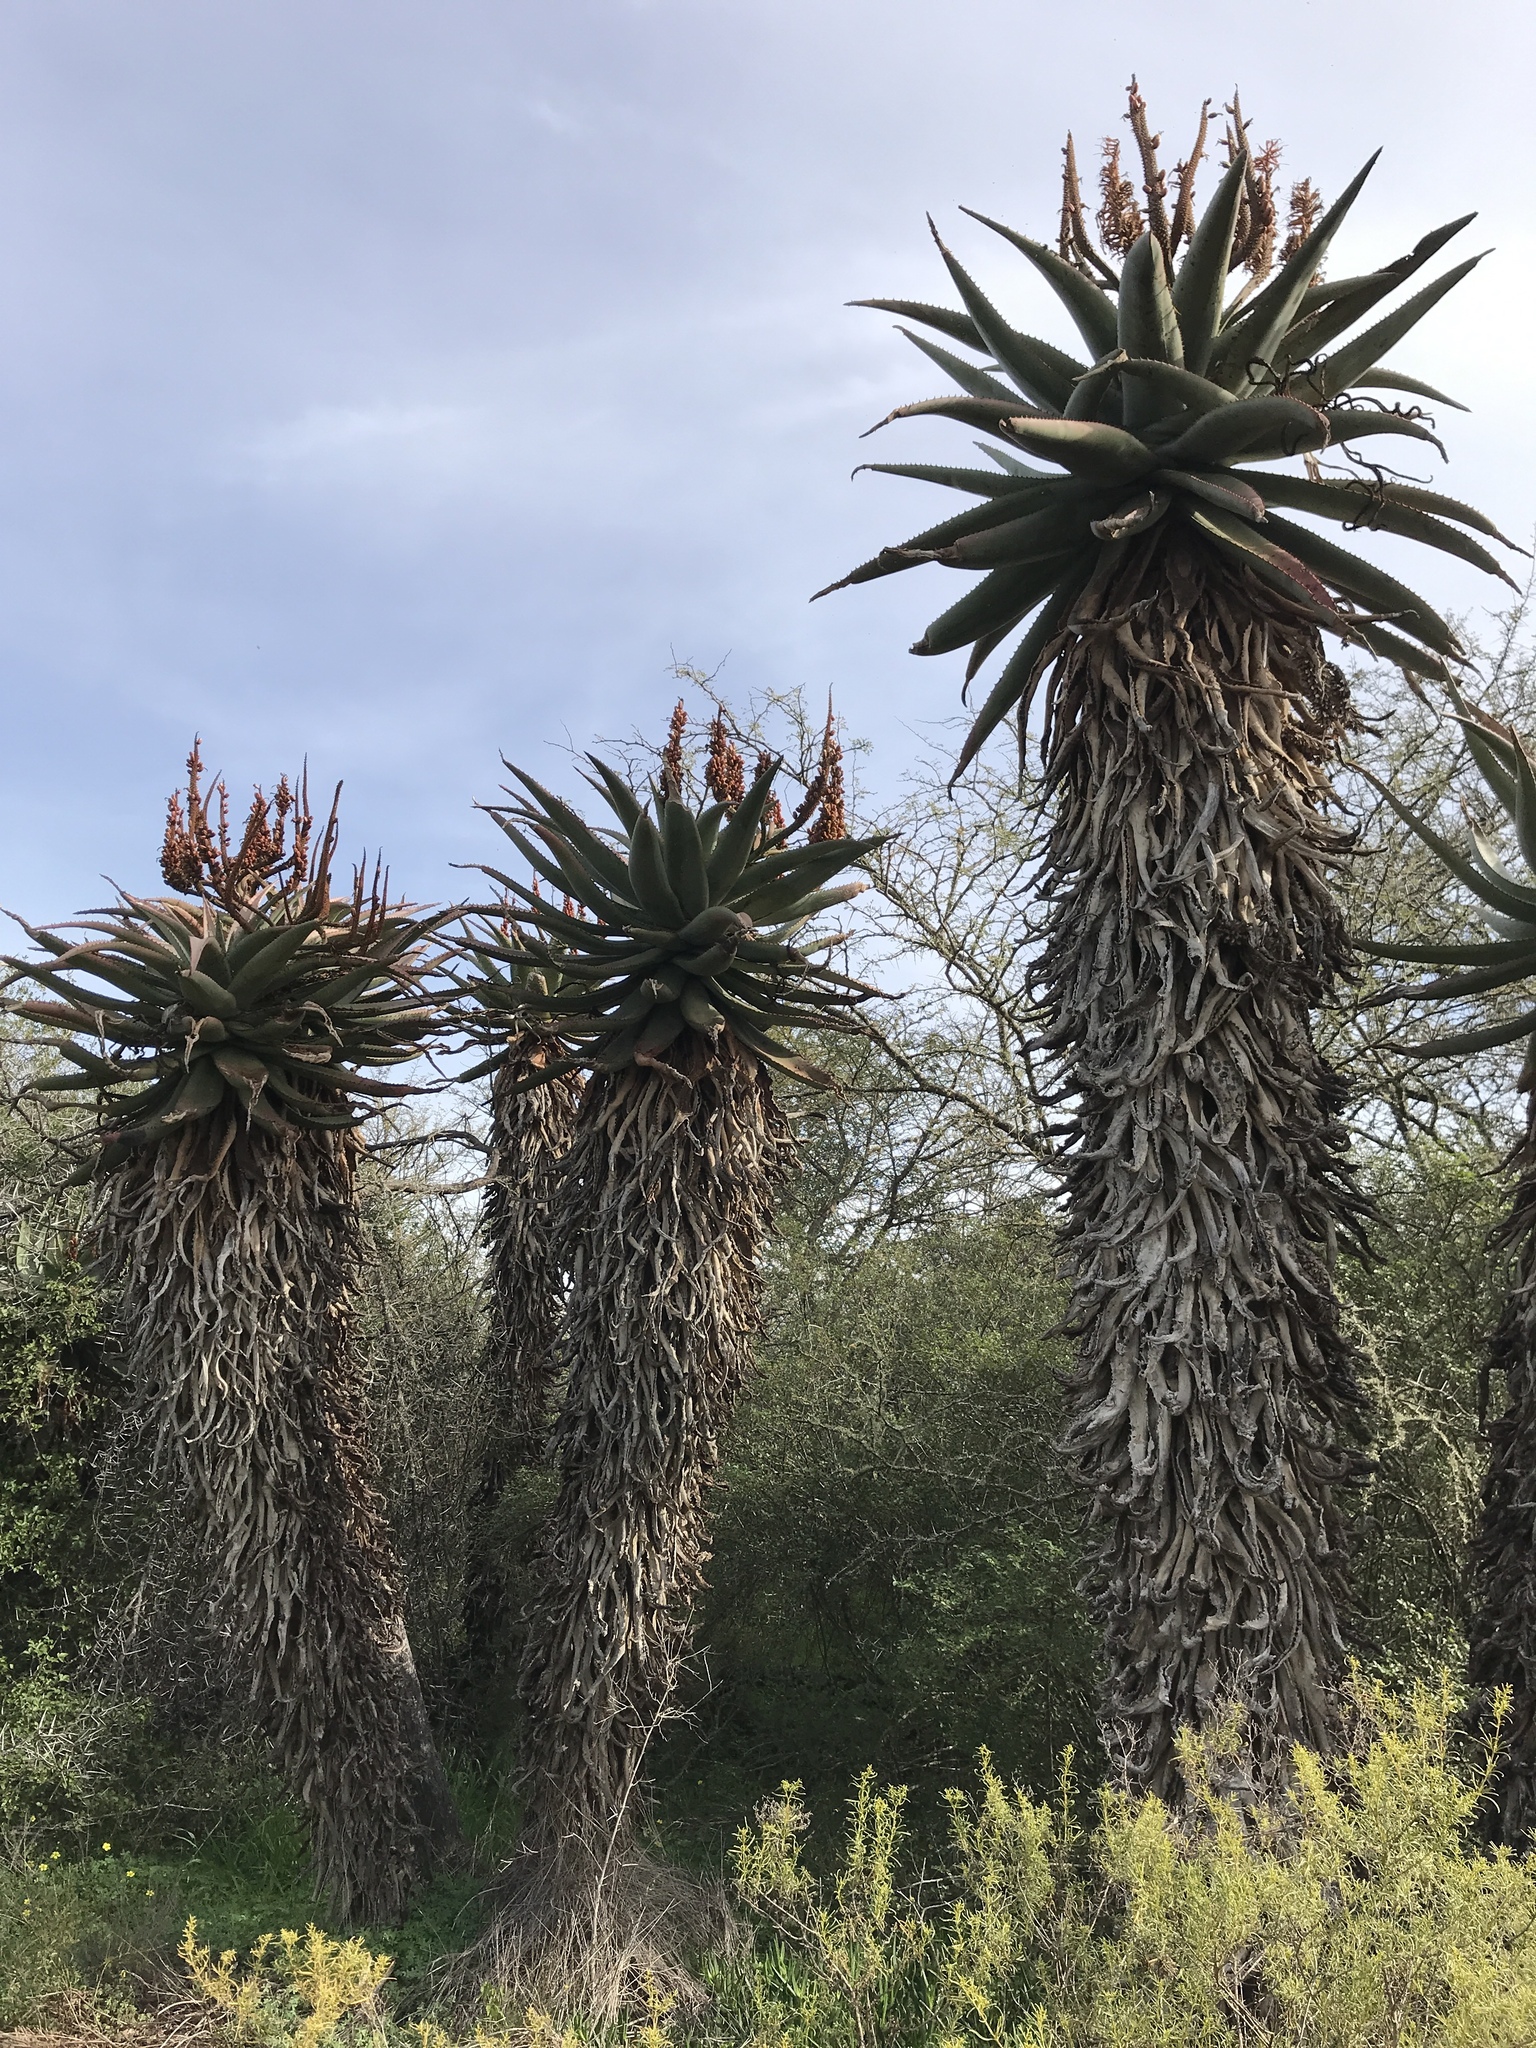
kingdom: Plantae
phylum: Tracheophyta
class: Liliopsida
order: Asparagales
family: Asphodelaceae
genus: Aloe
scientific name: Aloe ferox
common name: Bitter aloe
